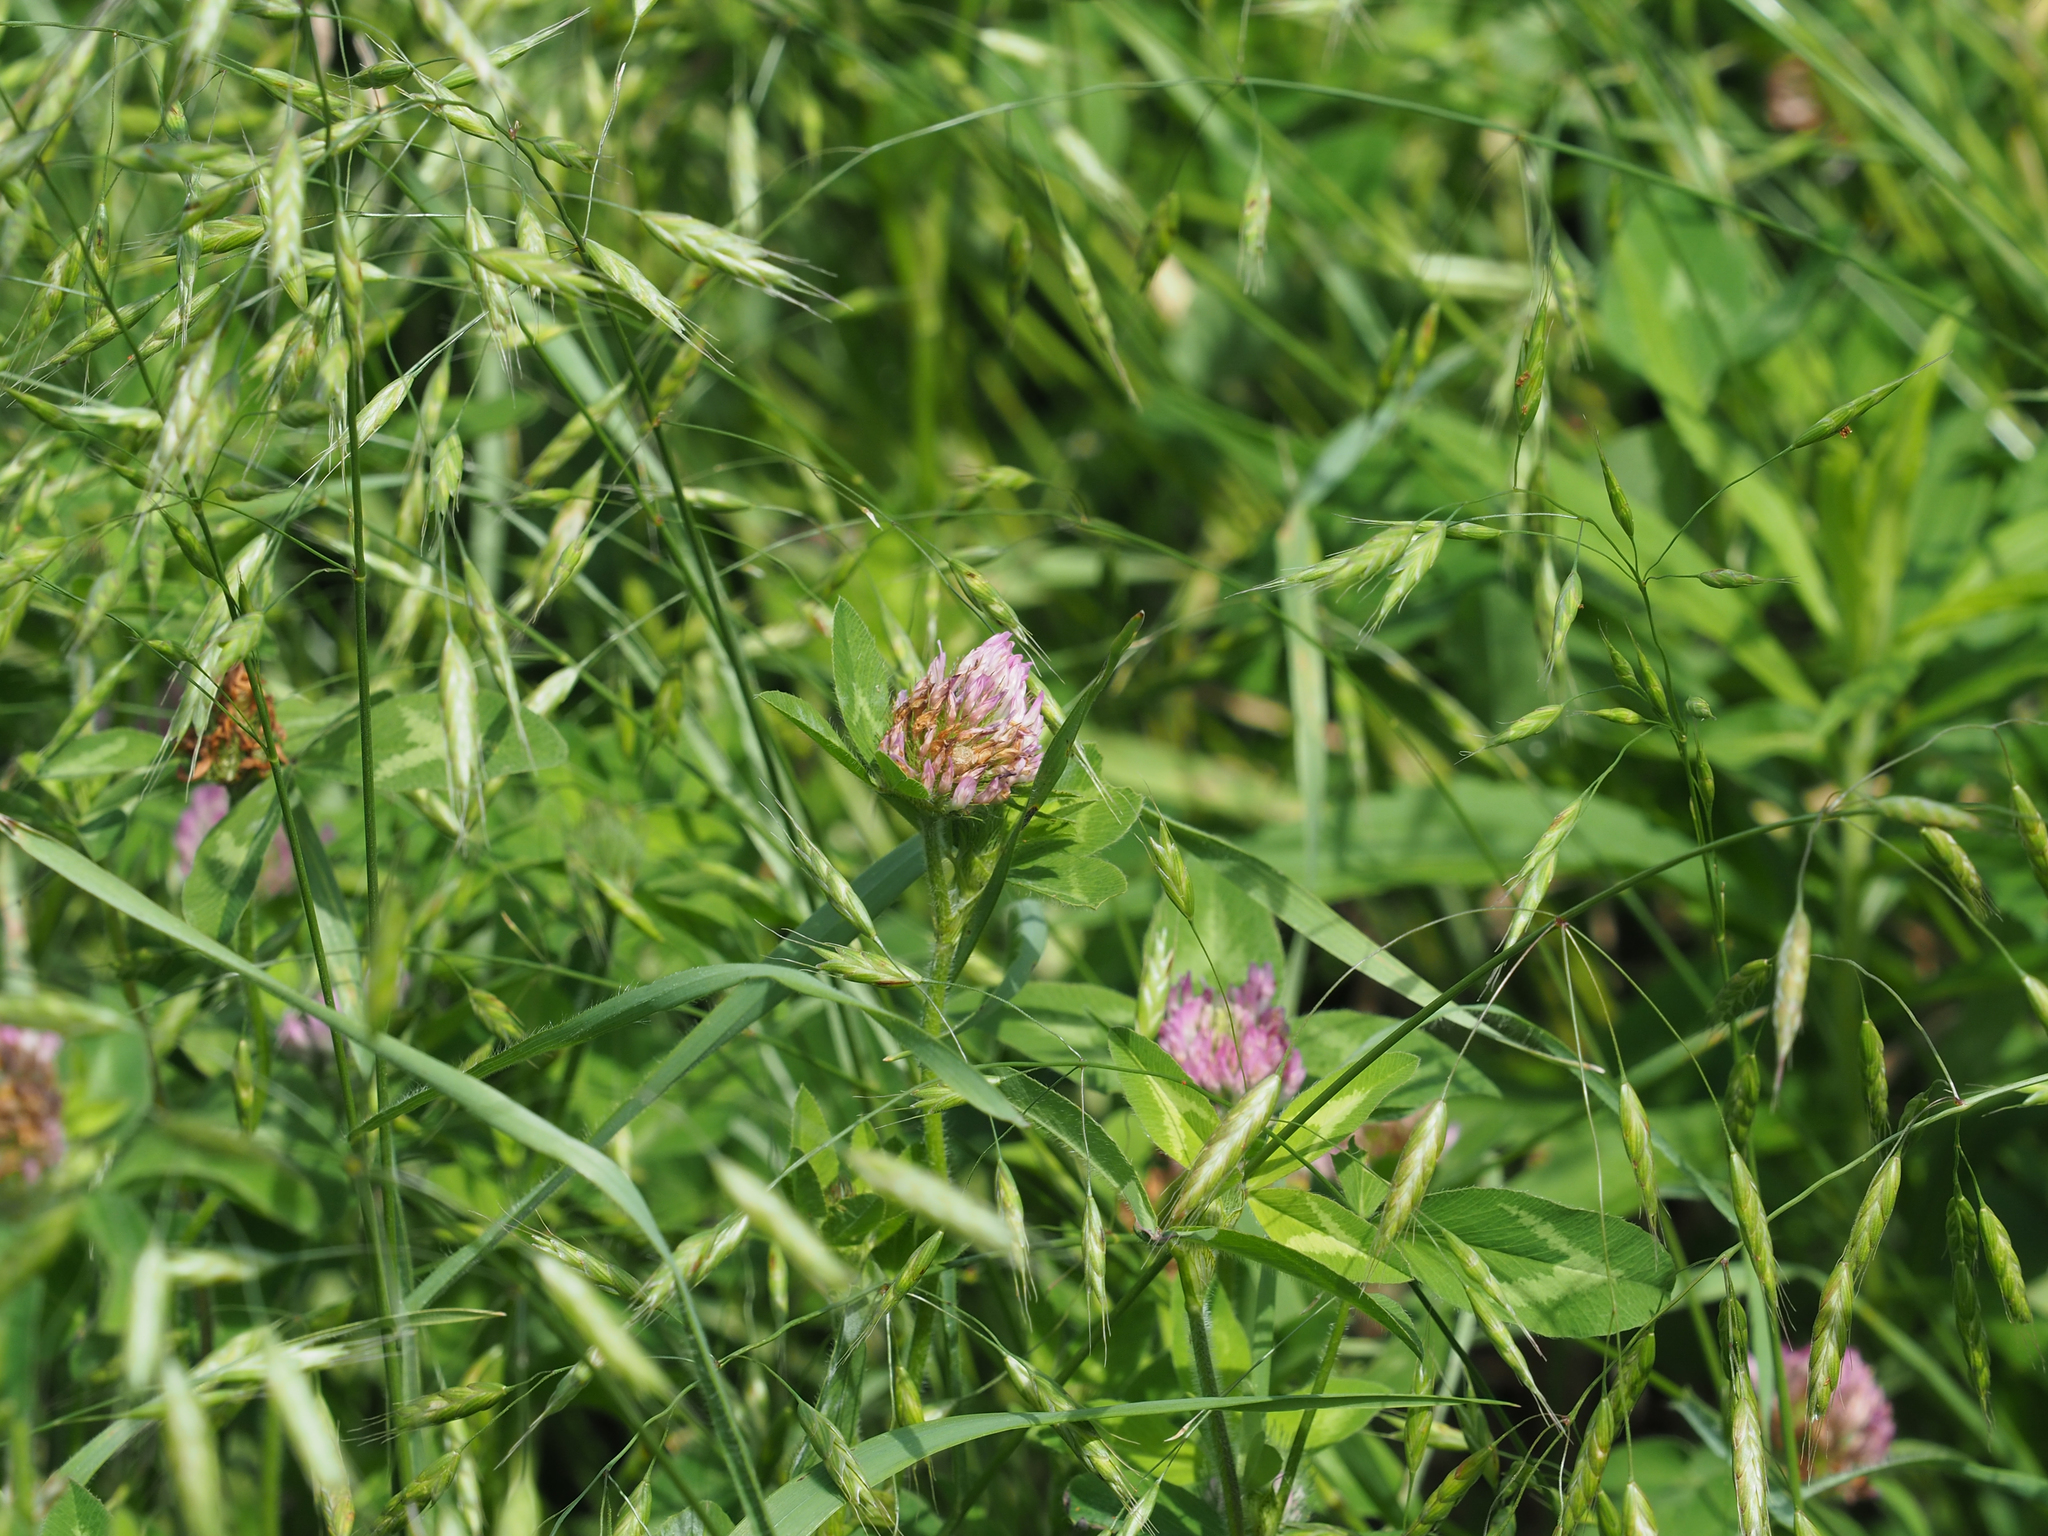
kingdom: Plantae
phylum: Tracheophyta
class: Magnoliopsida
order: Fabales
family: Fabaceae
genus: Trifolium
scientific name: Trifolium pratense
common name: Red clover
